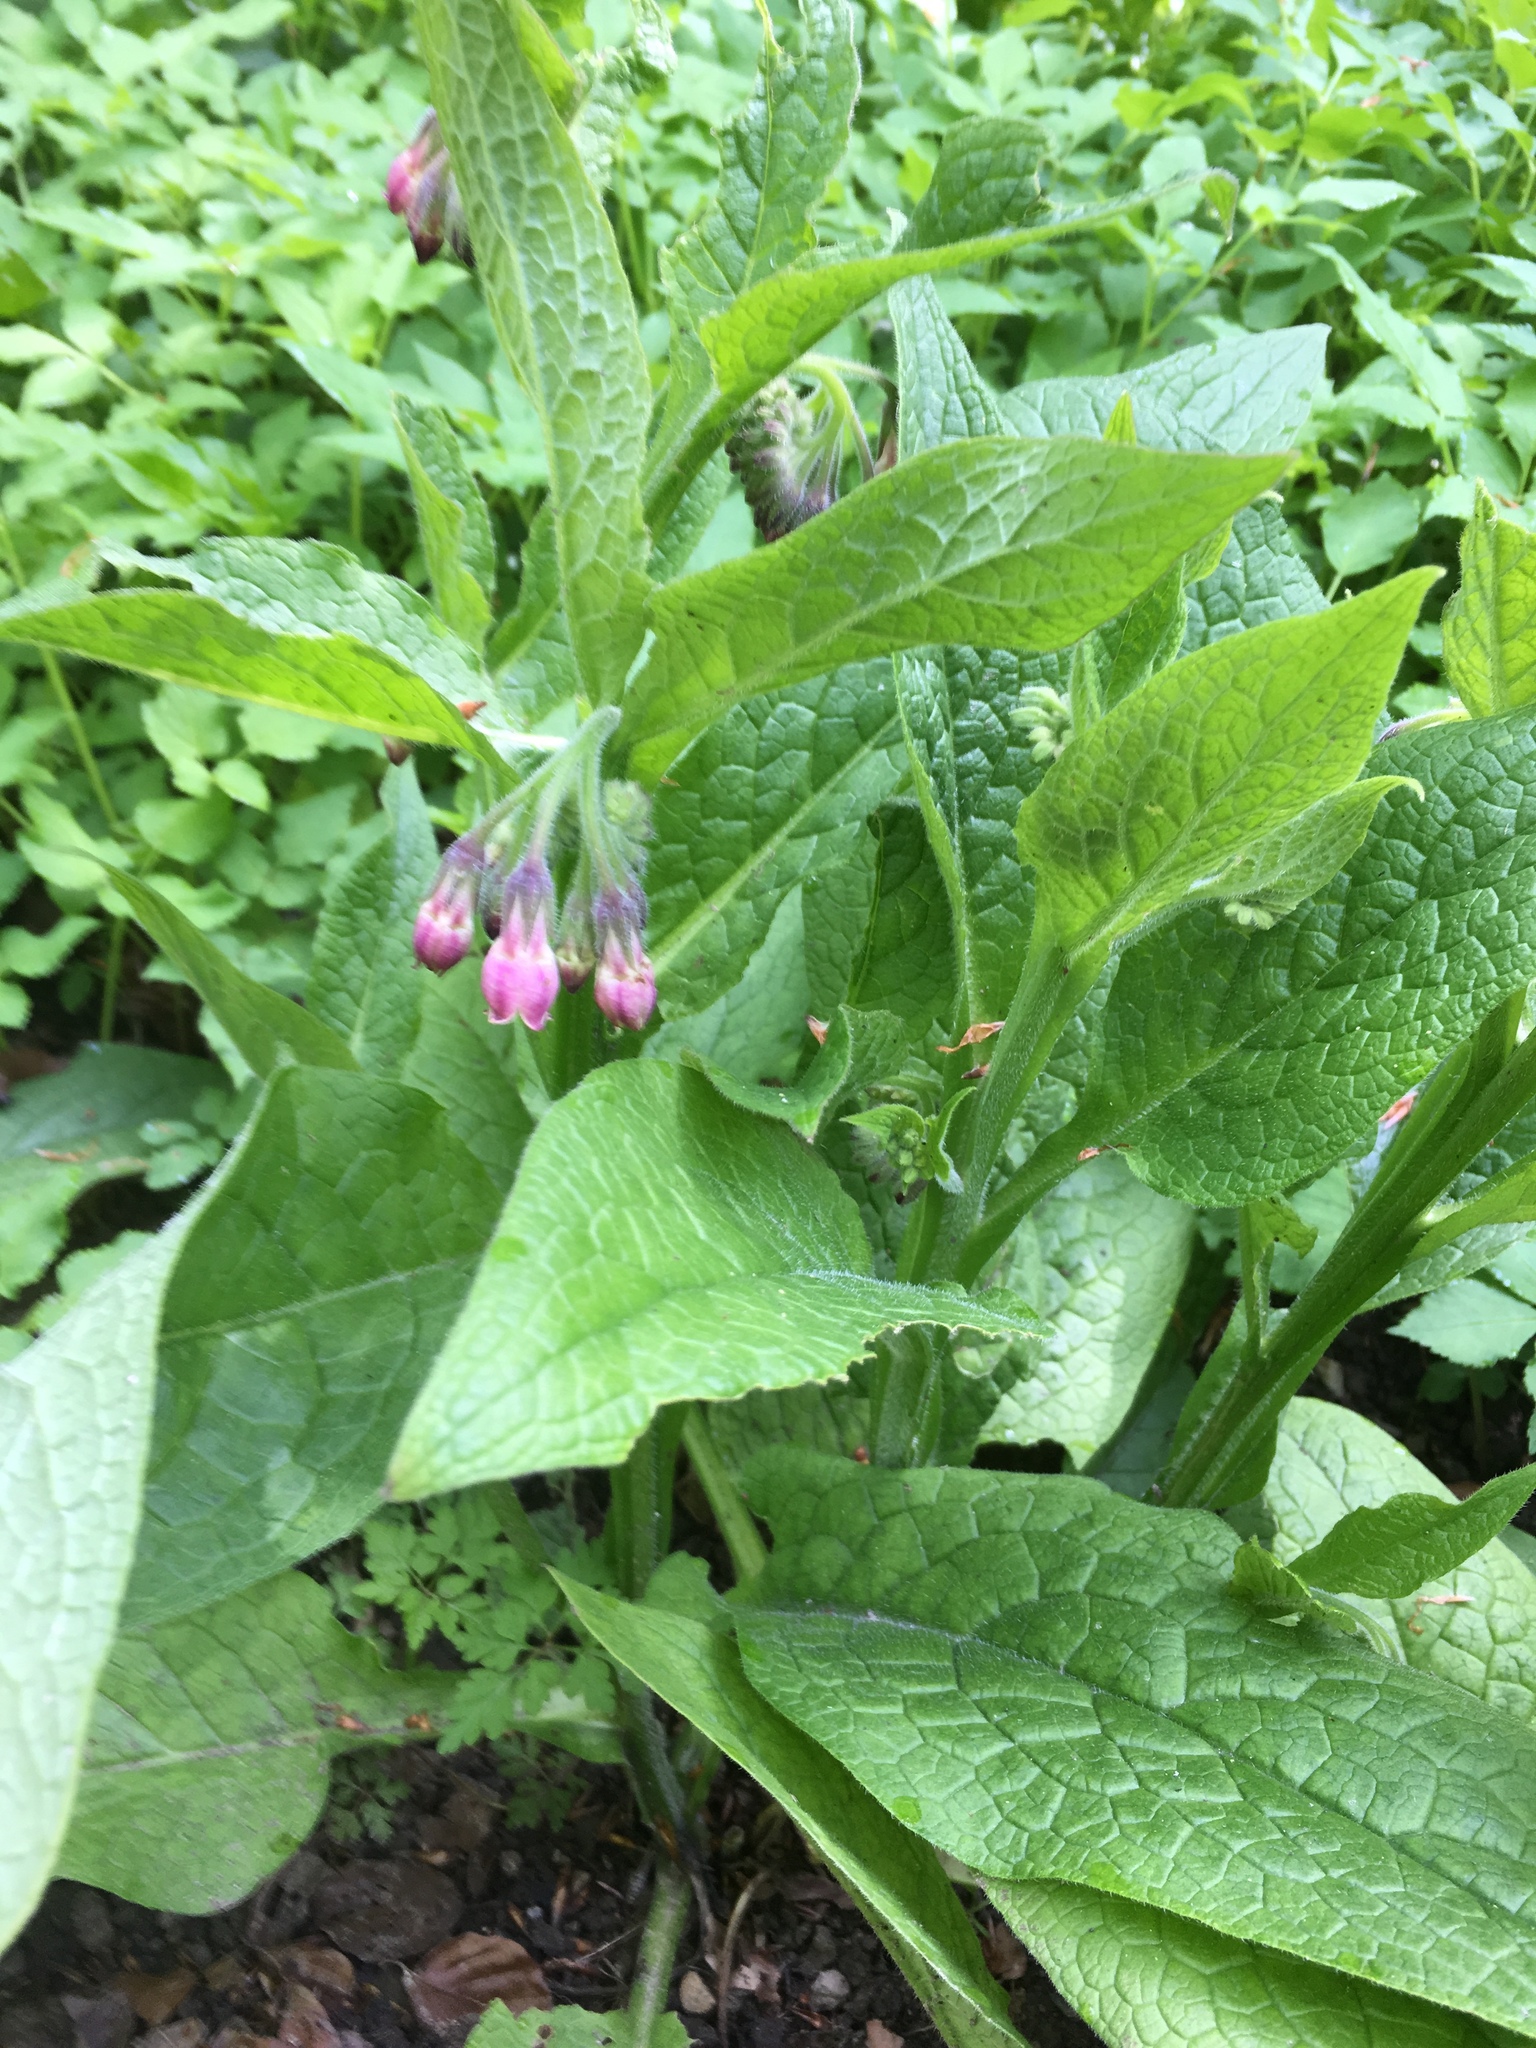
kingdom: Plantae
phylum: Tracheophyta
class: Magnoliopsida
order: Boraginales
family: Boraginaceae
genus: Symphytum
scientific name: Symphytum officinale
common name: Common comfrey
